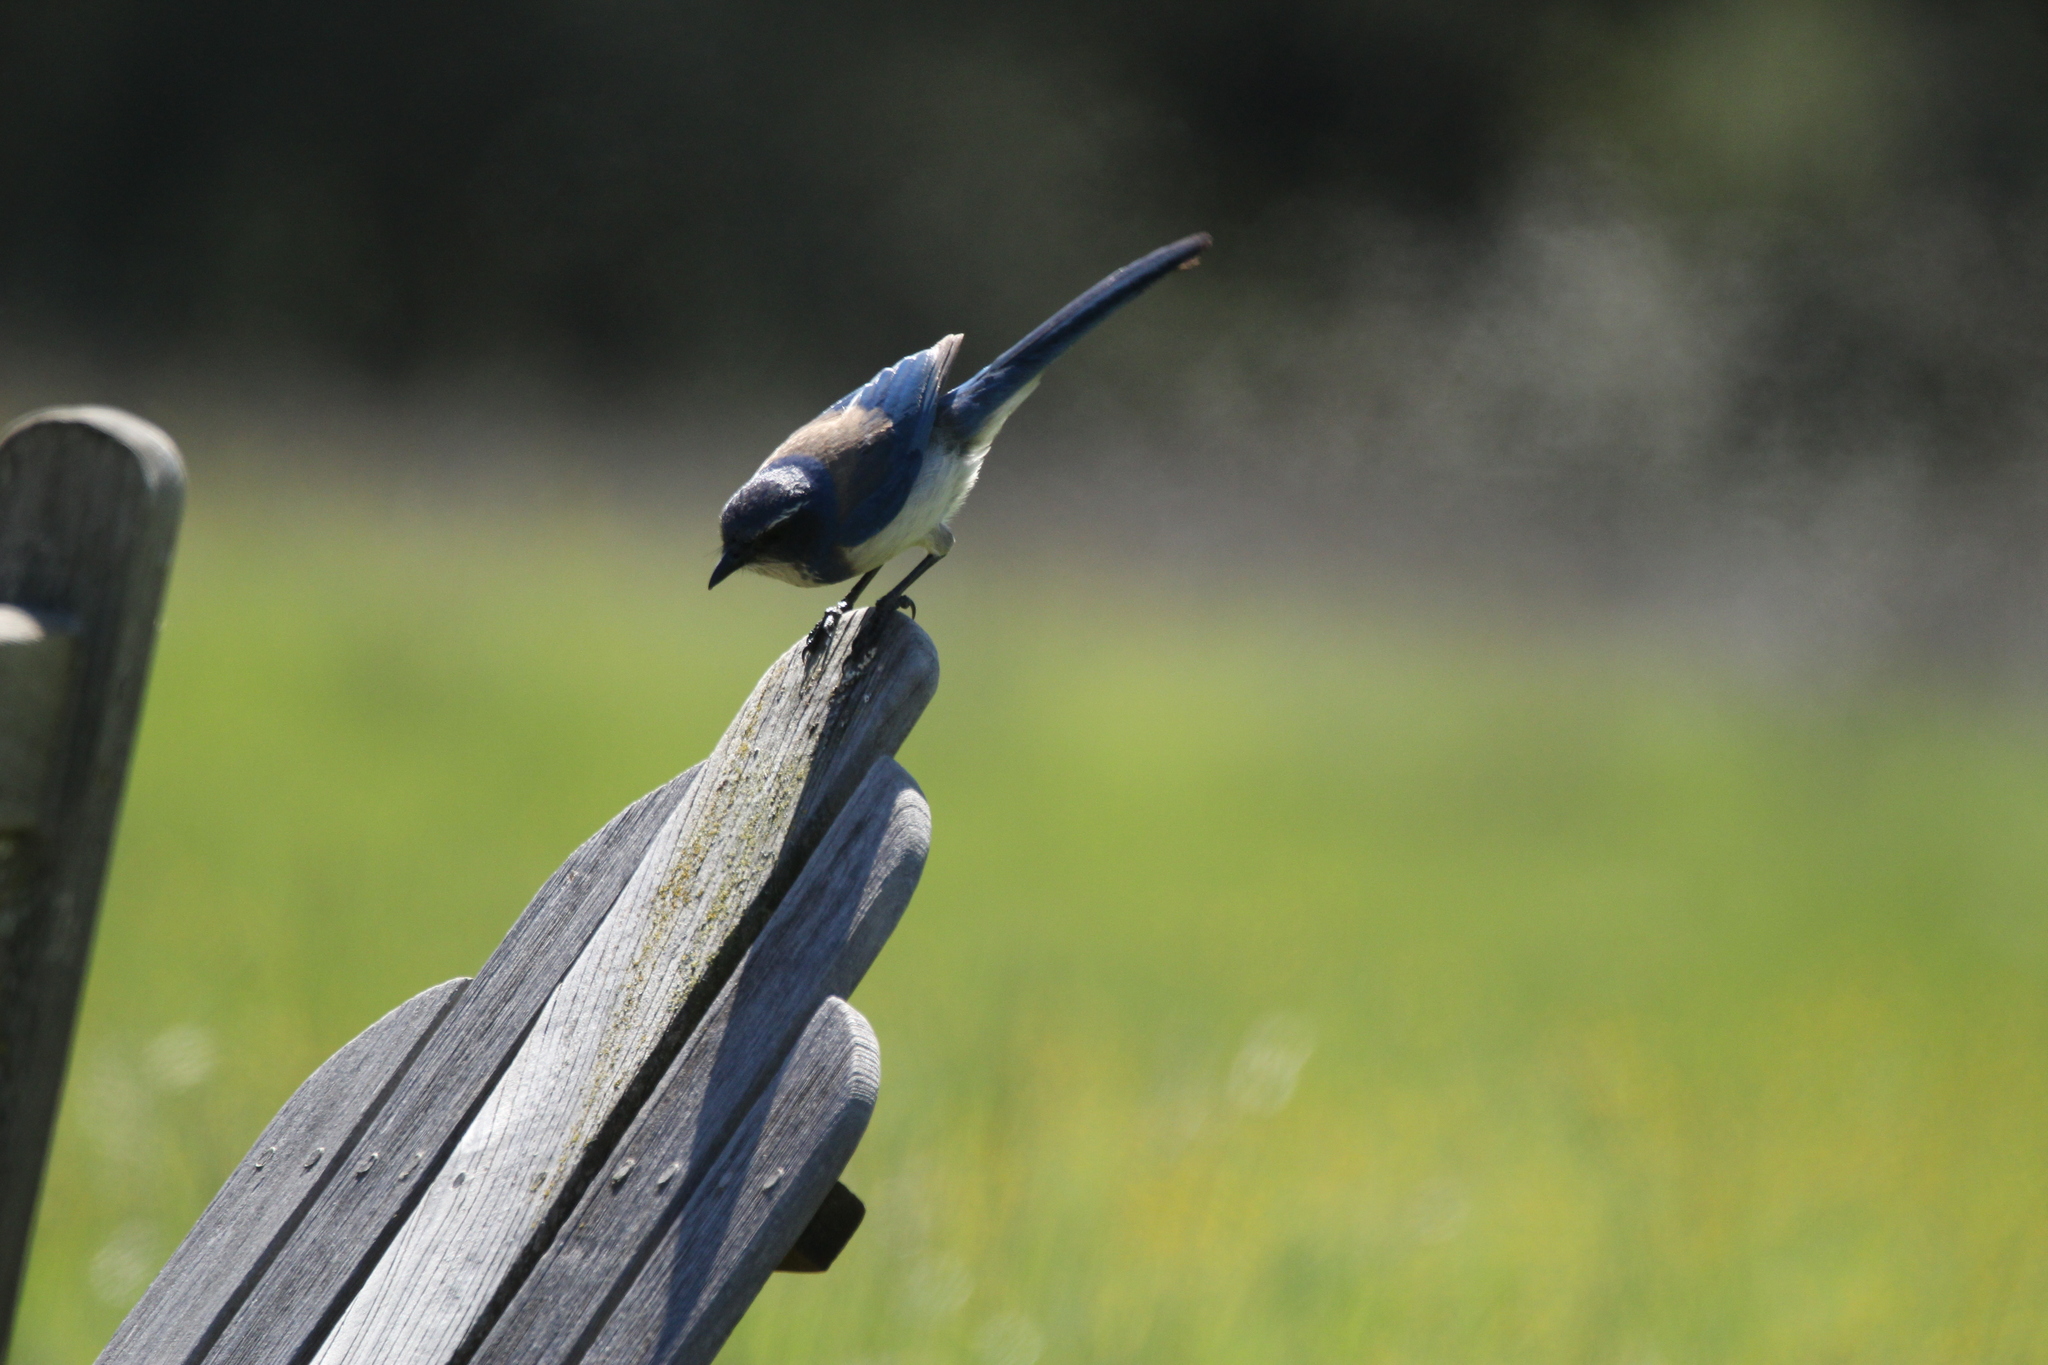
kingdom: Animalia
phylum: Chordata
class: Aves
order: Passeriformes
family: Corvidae
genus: Aphelocoma
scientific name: Aphelocoma californica
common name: California scrub-jay
